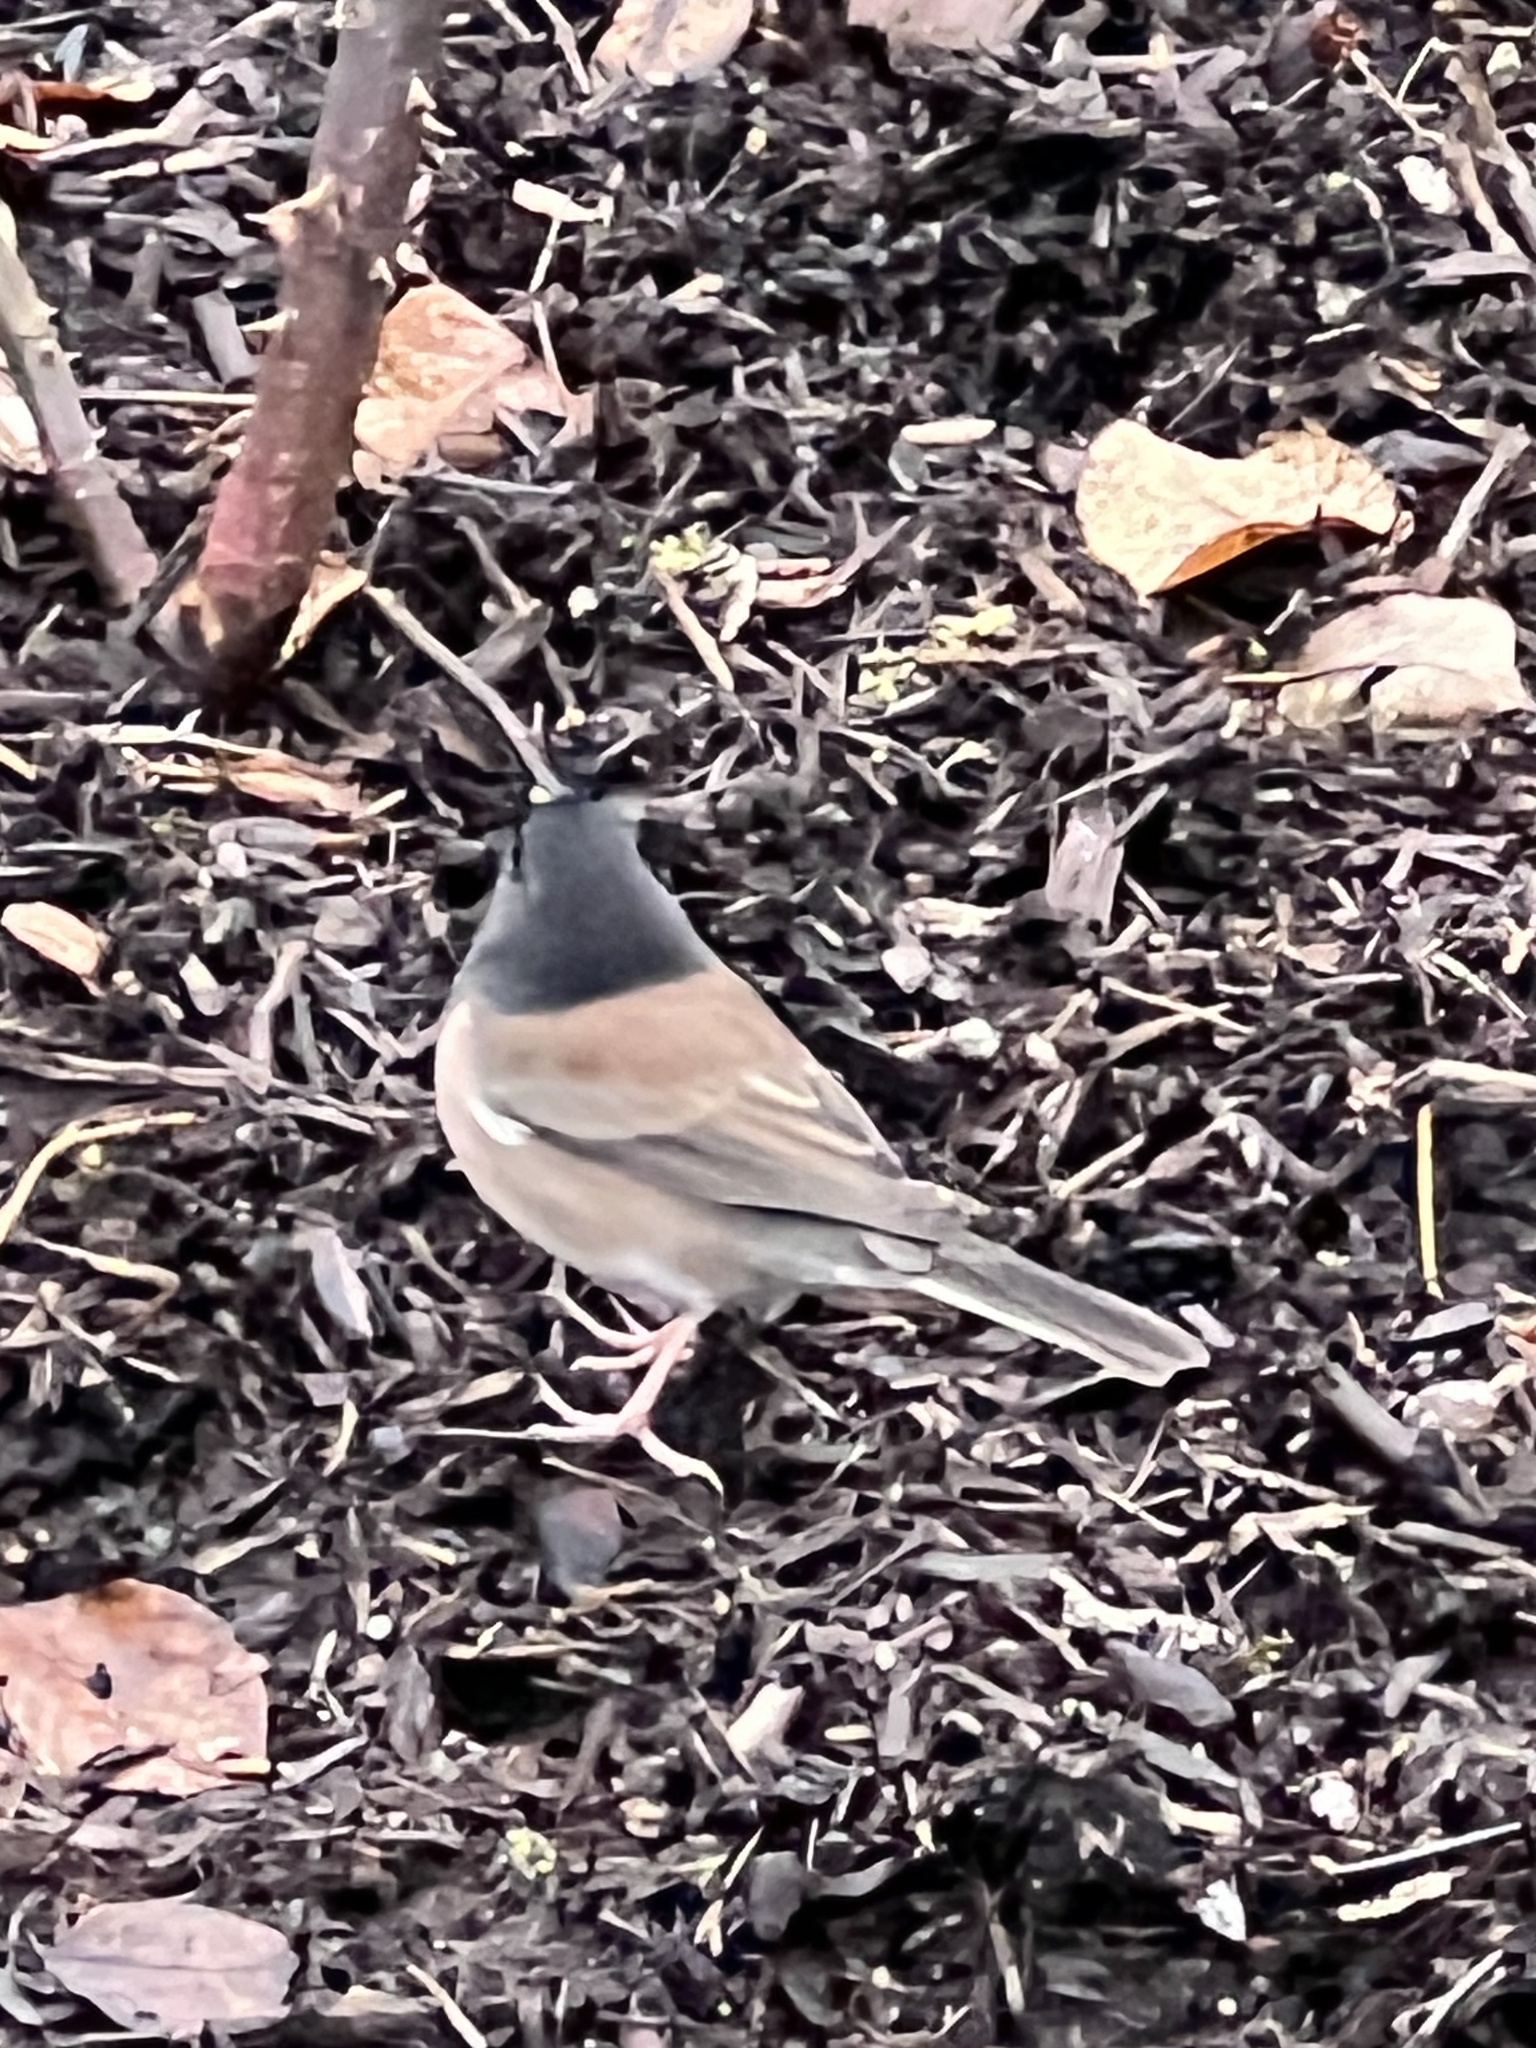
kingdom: Animalia
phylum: Chordata
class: Aves
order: Passeriformes
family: Passerellidae
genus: Junco
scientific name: Junco hyemalis
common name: Dark-eyed junco
